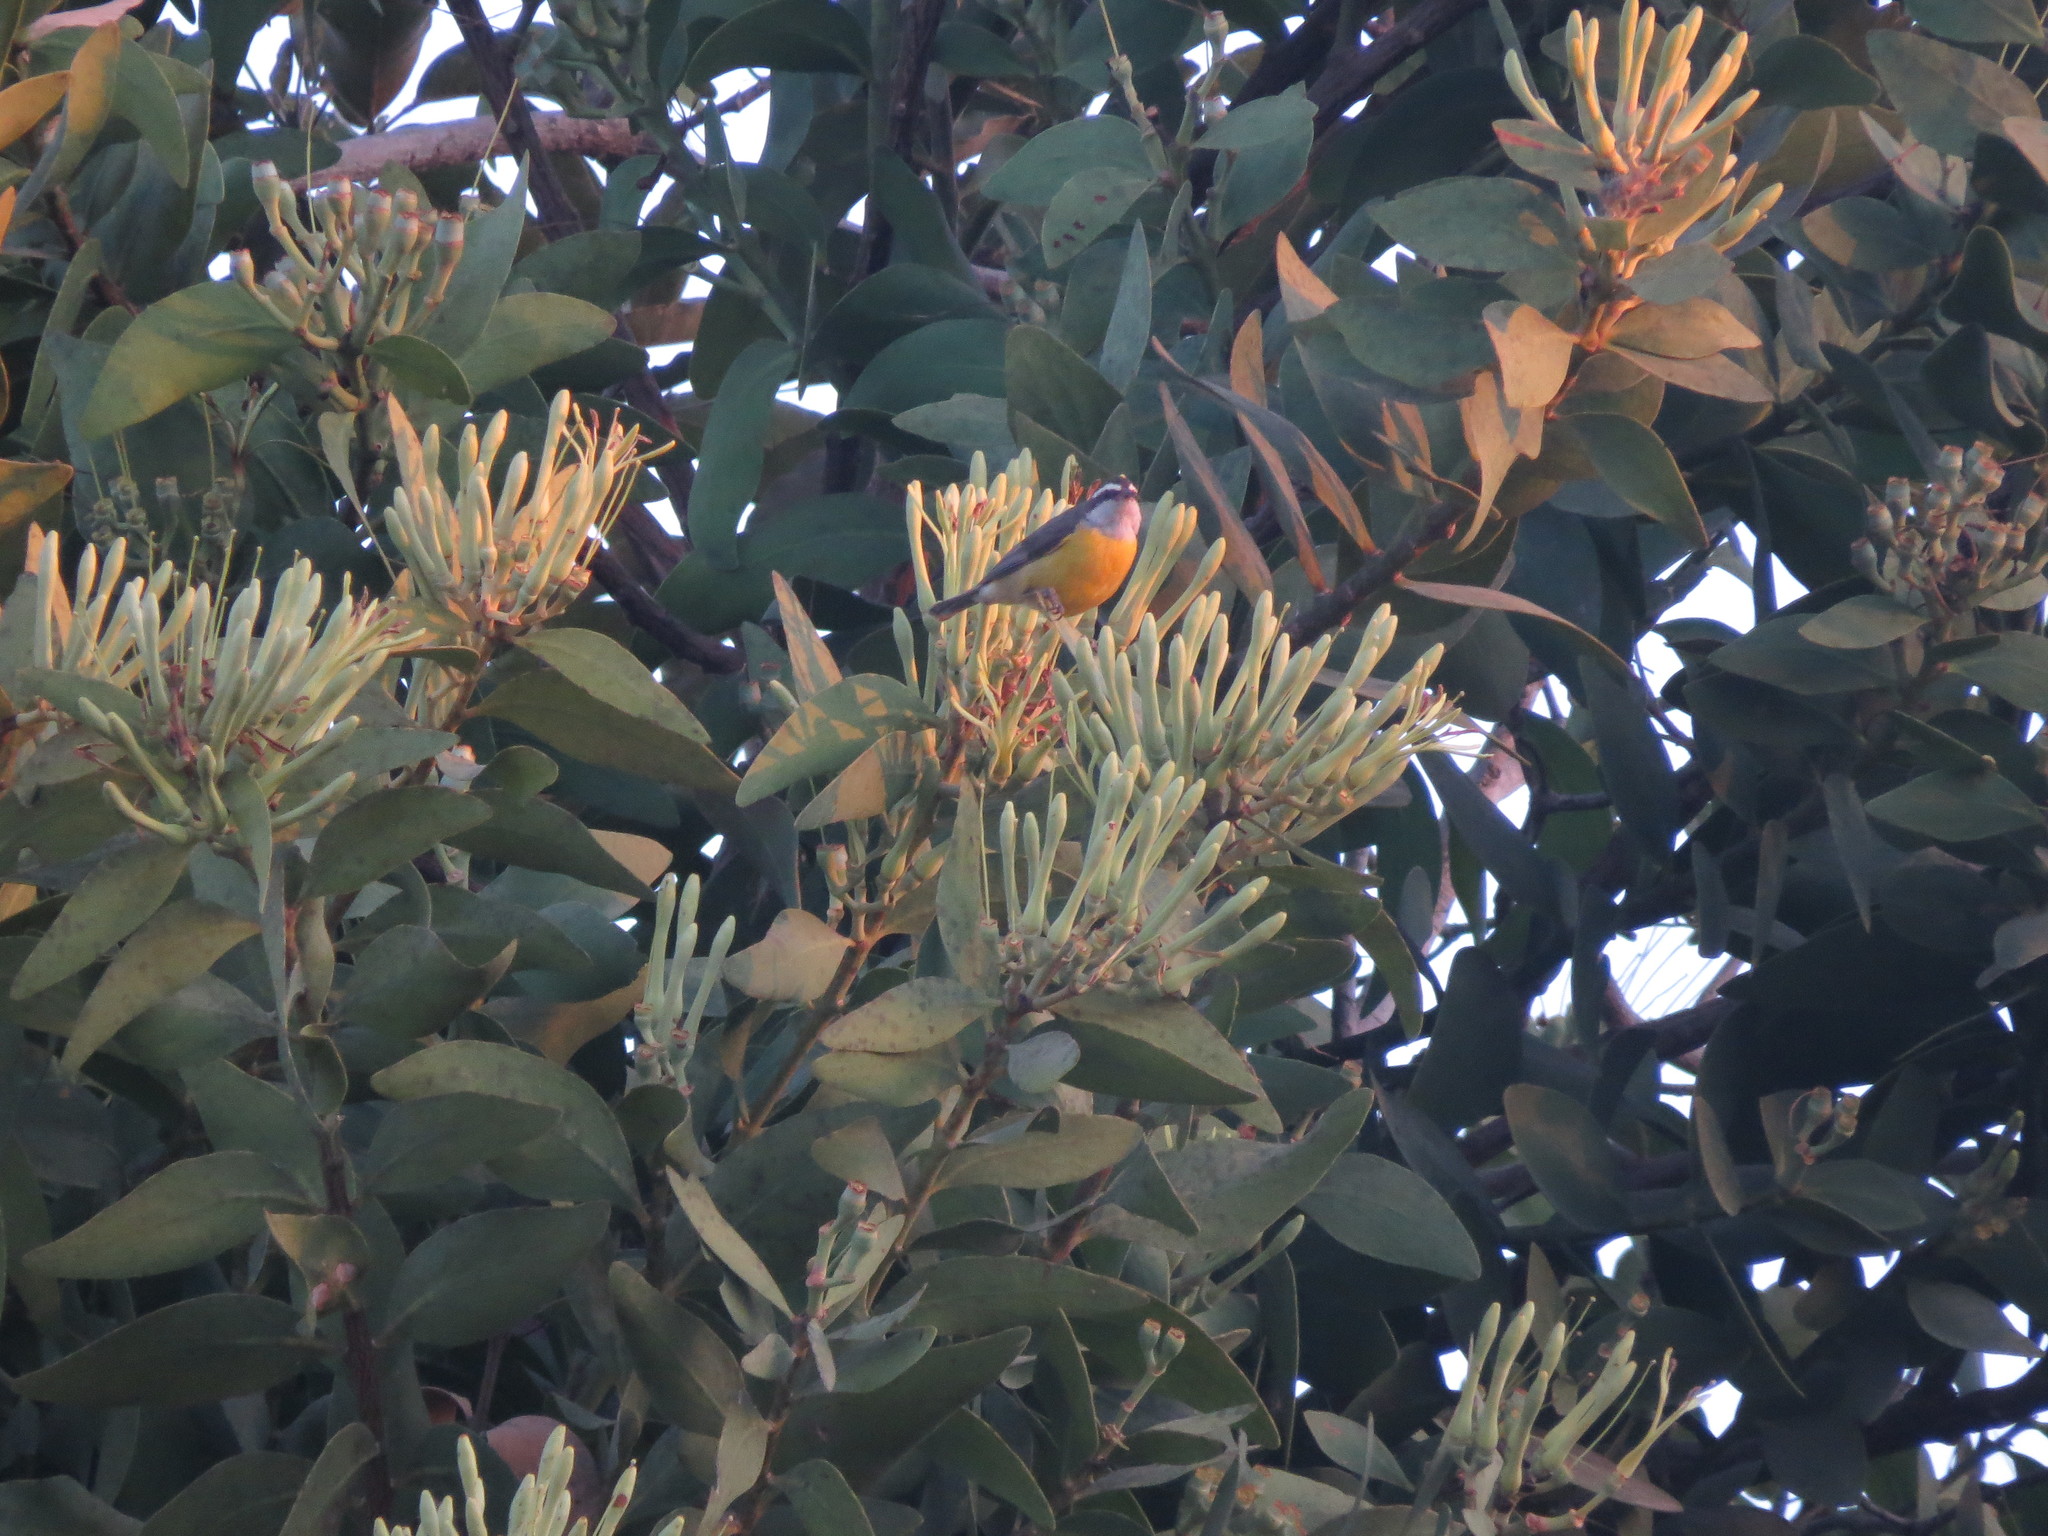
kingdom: Animalia
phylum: Chordata
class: Aves
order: Passeriformes
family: Thraupidae
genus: Coereba
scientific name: Coereba flaveola
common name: Bananaquit
